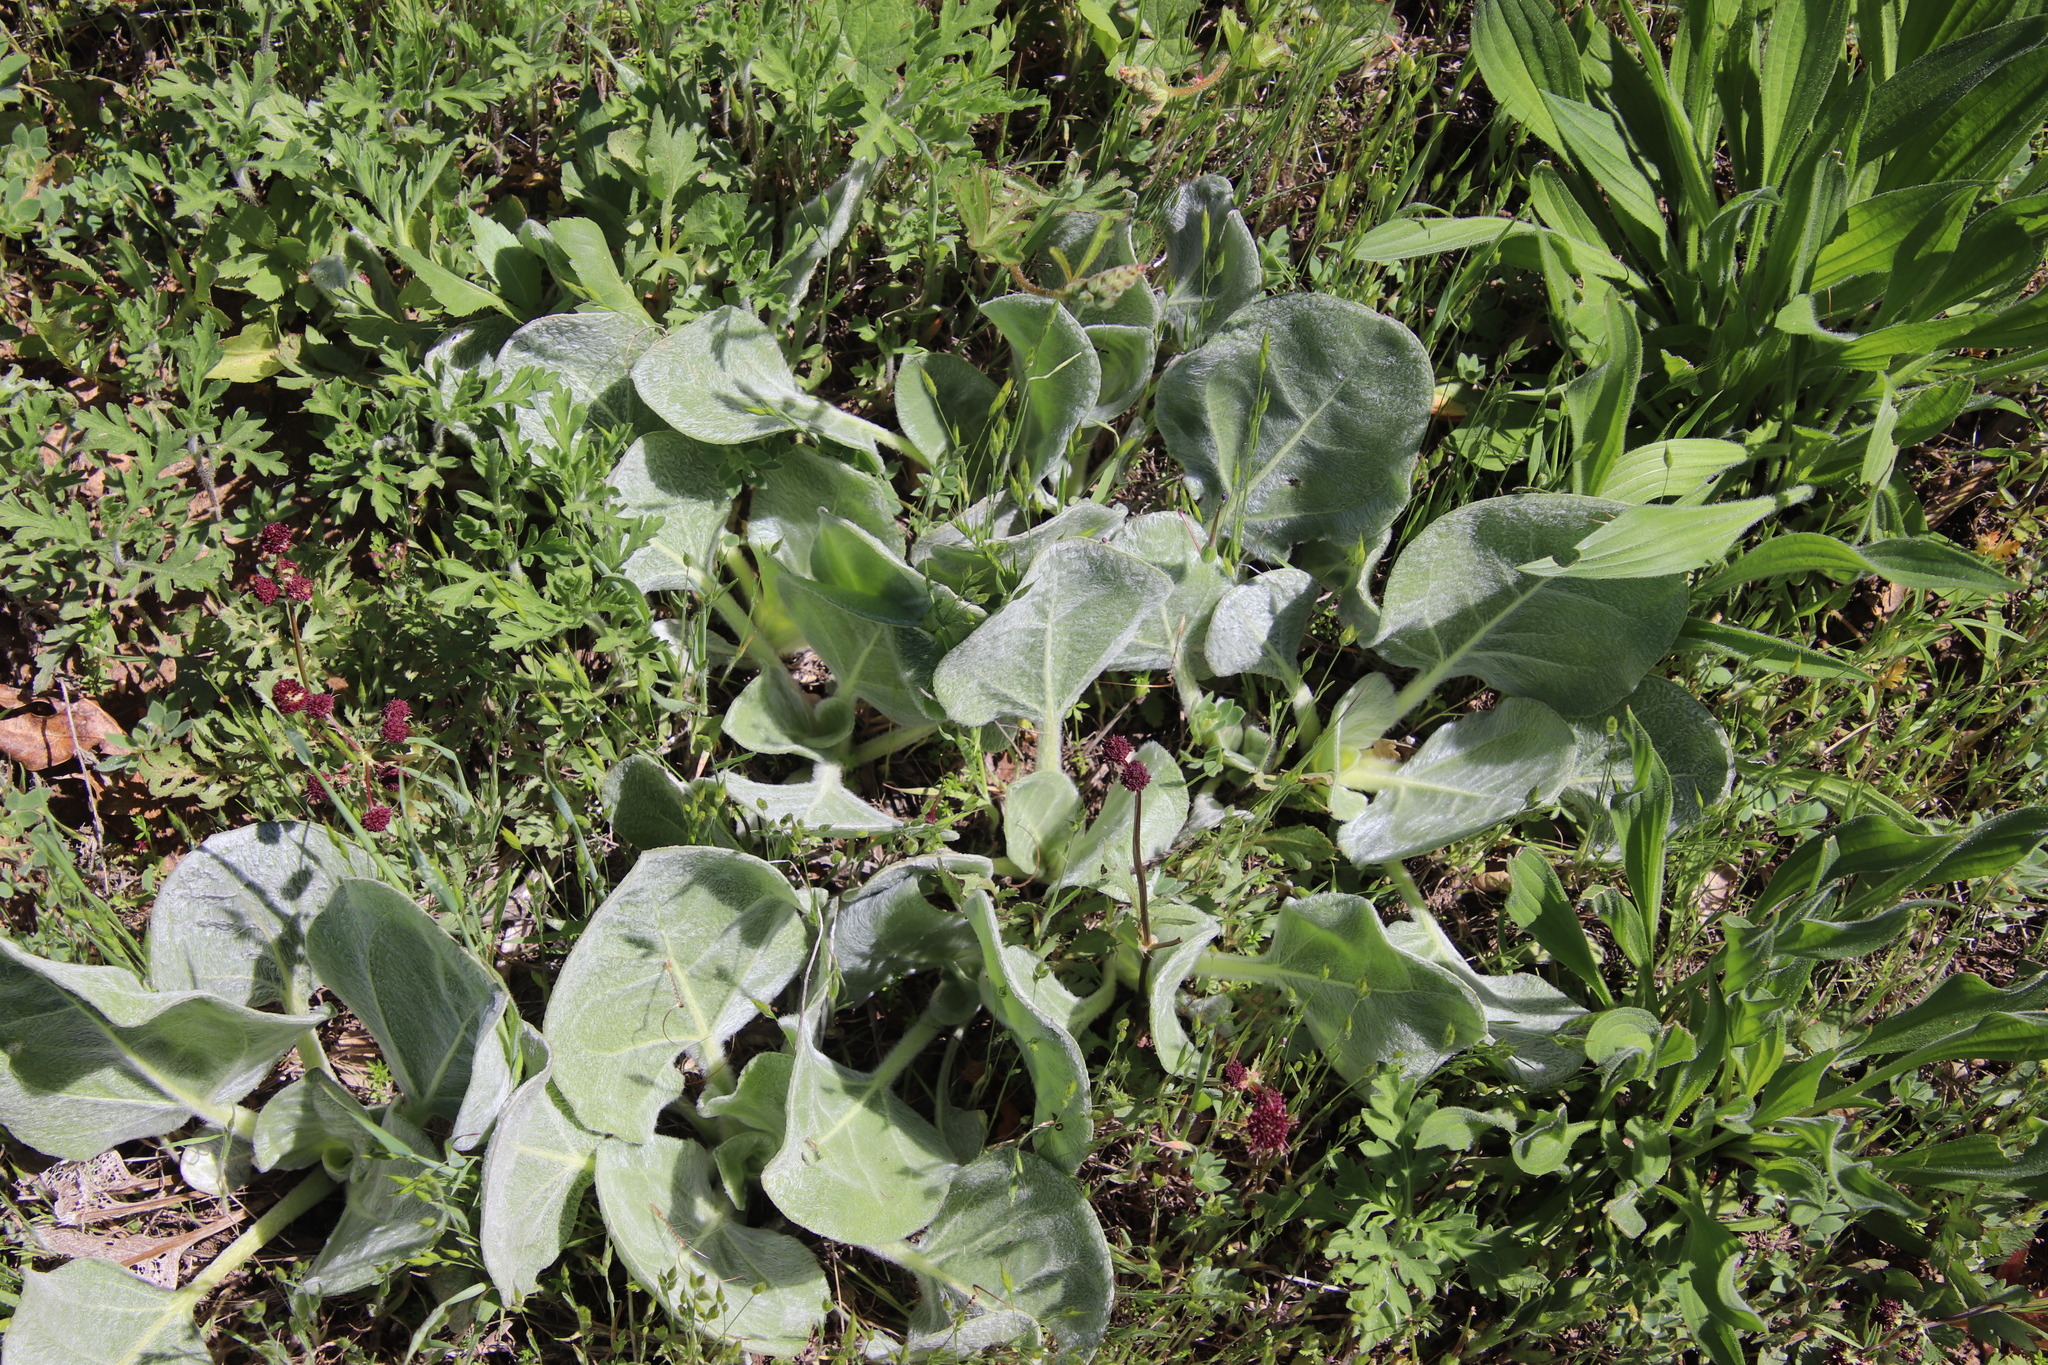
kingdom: Plantae
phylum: Tracheophyta
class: Magnoliopsida
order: Asterales
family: Asteraceae
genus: Agnorhiza
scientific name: Agnorhiza ovata
